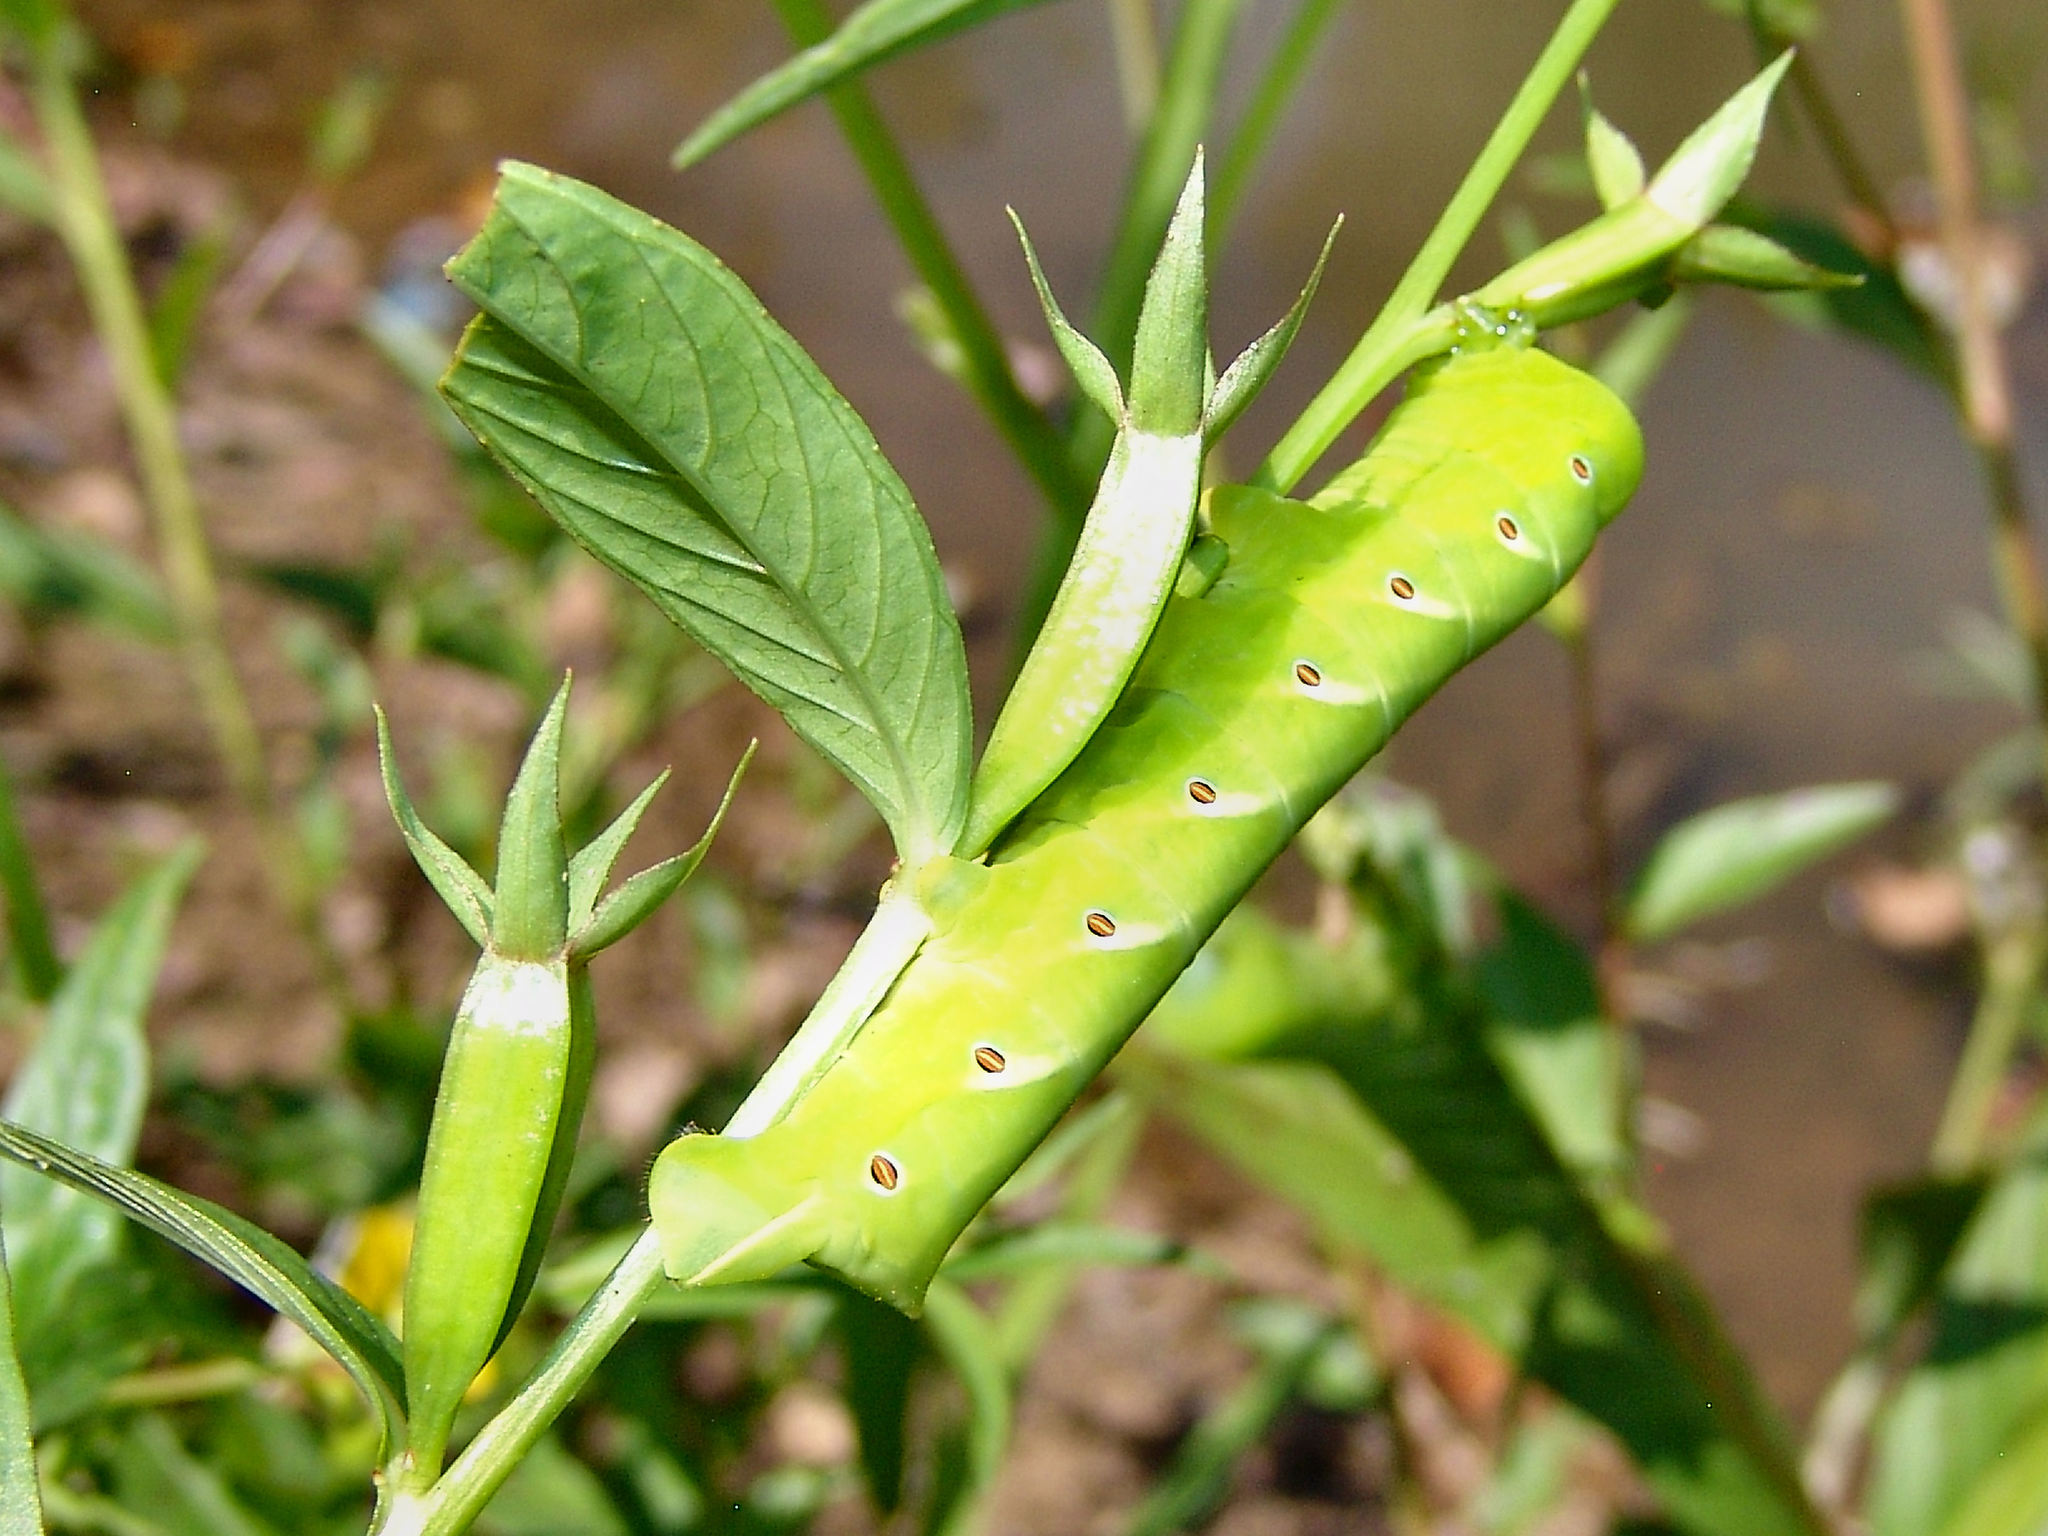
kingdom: Animalia
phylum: Arthropoda
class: Insecta
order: Lepidoptera
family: Sphingidae
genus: Eumorpha
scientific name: Eumorpha fasciatus
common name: Banded sphinx
